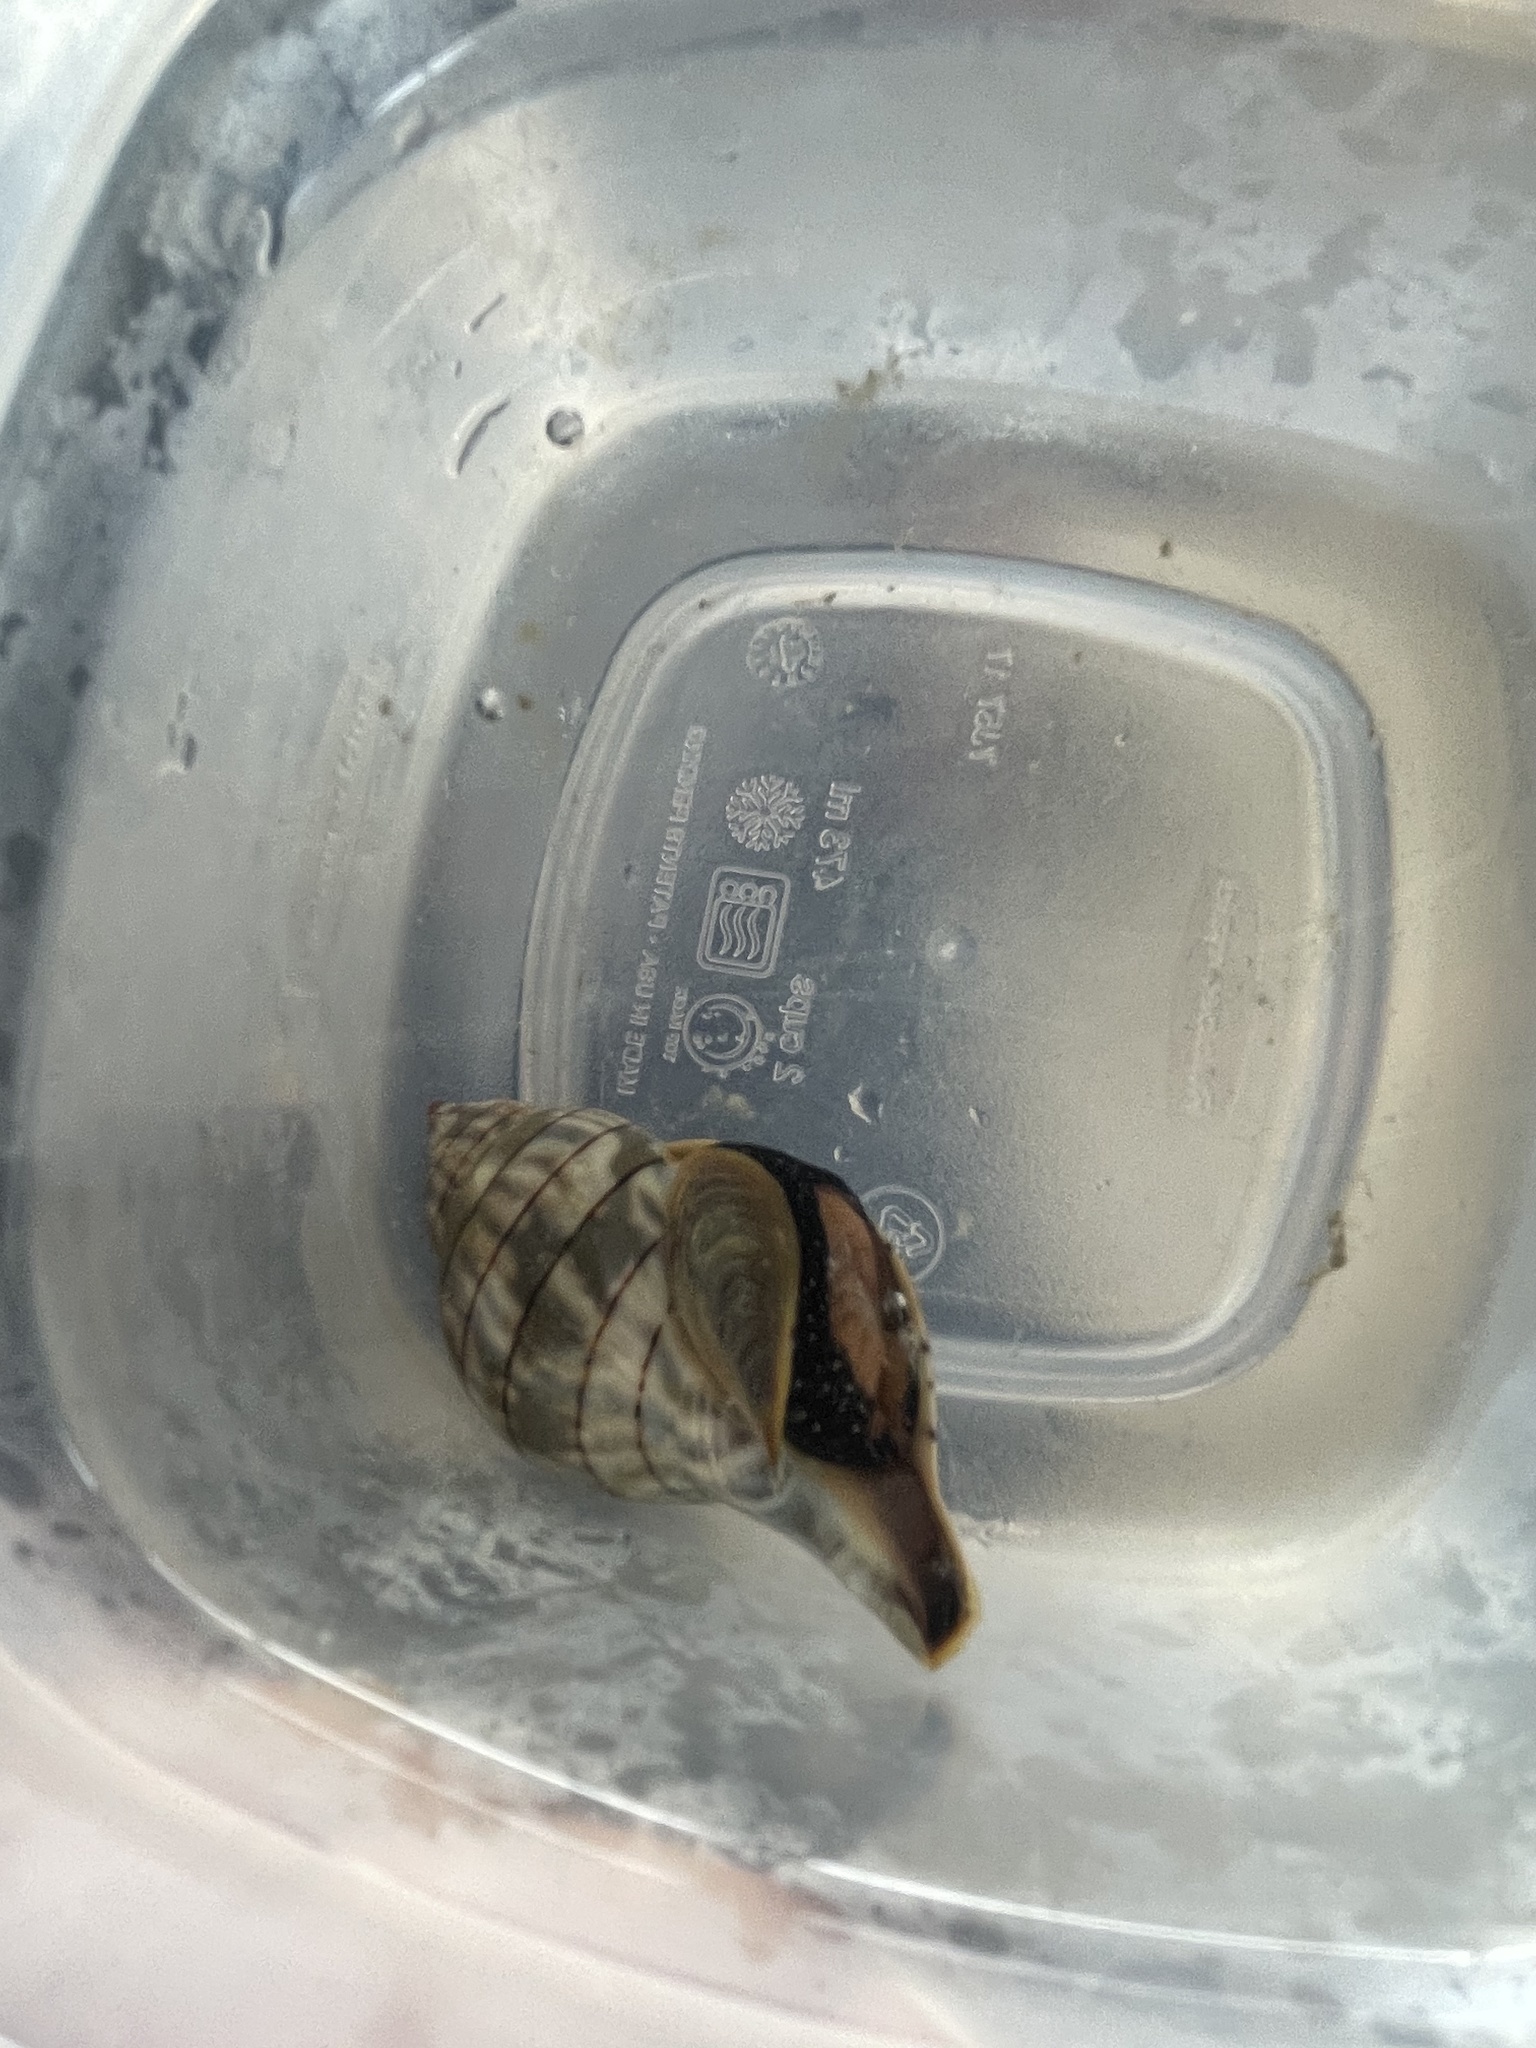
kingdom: Animalia
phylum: Mollusca
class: Gastropoda
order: Neogastropoda
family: Fasciolariidae
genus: Cinctura
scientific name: Cinctura hunteria
